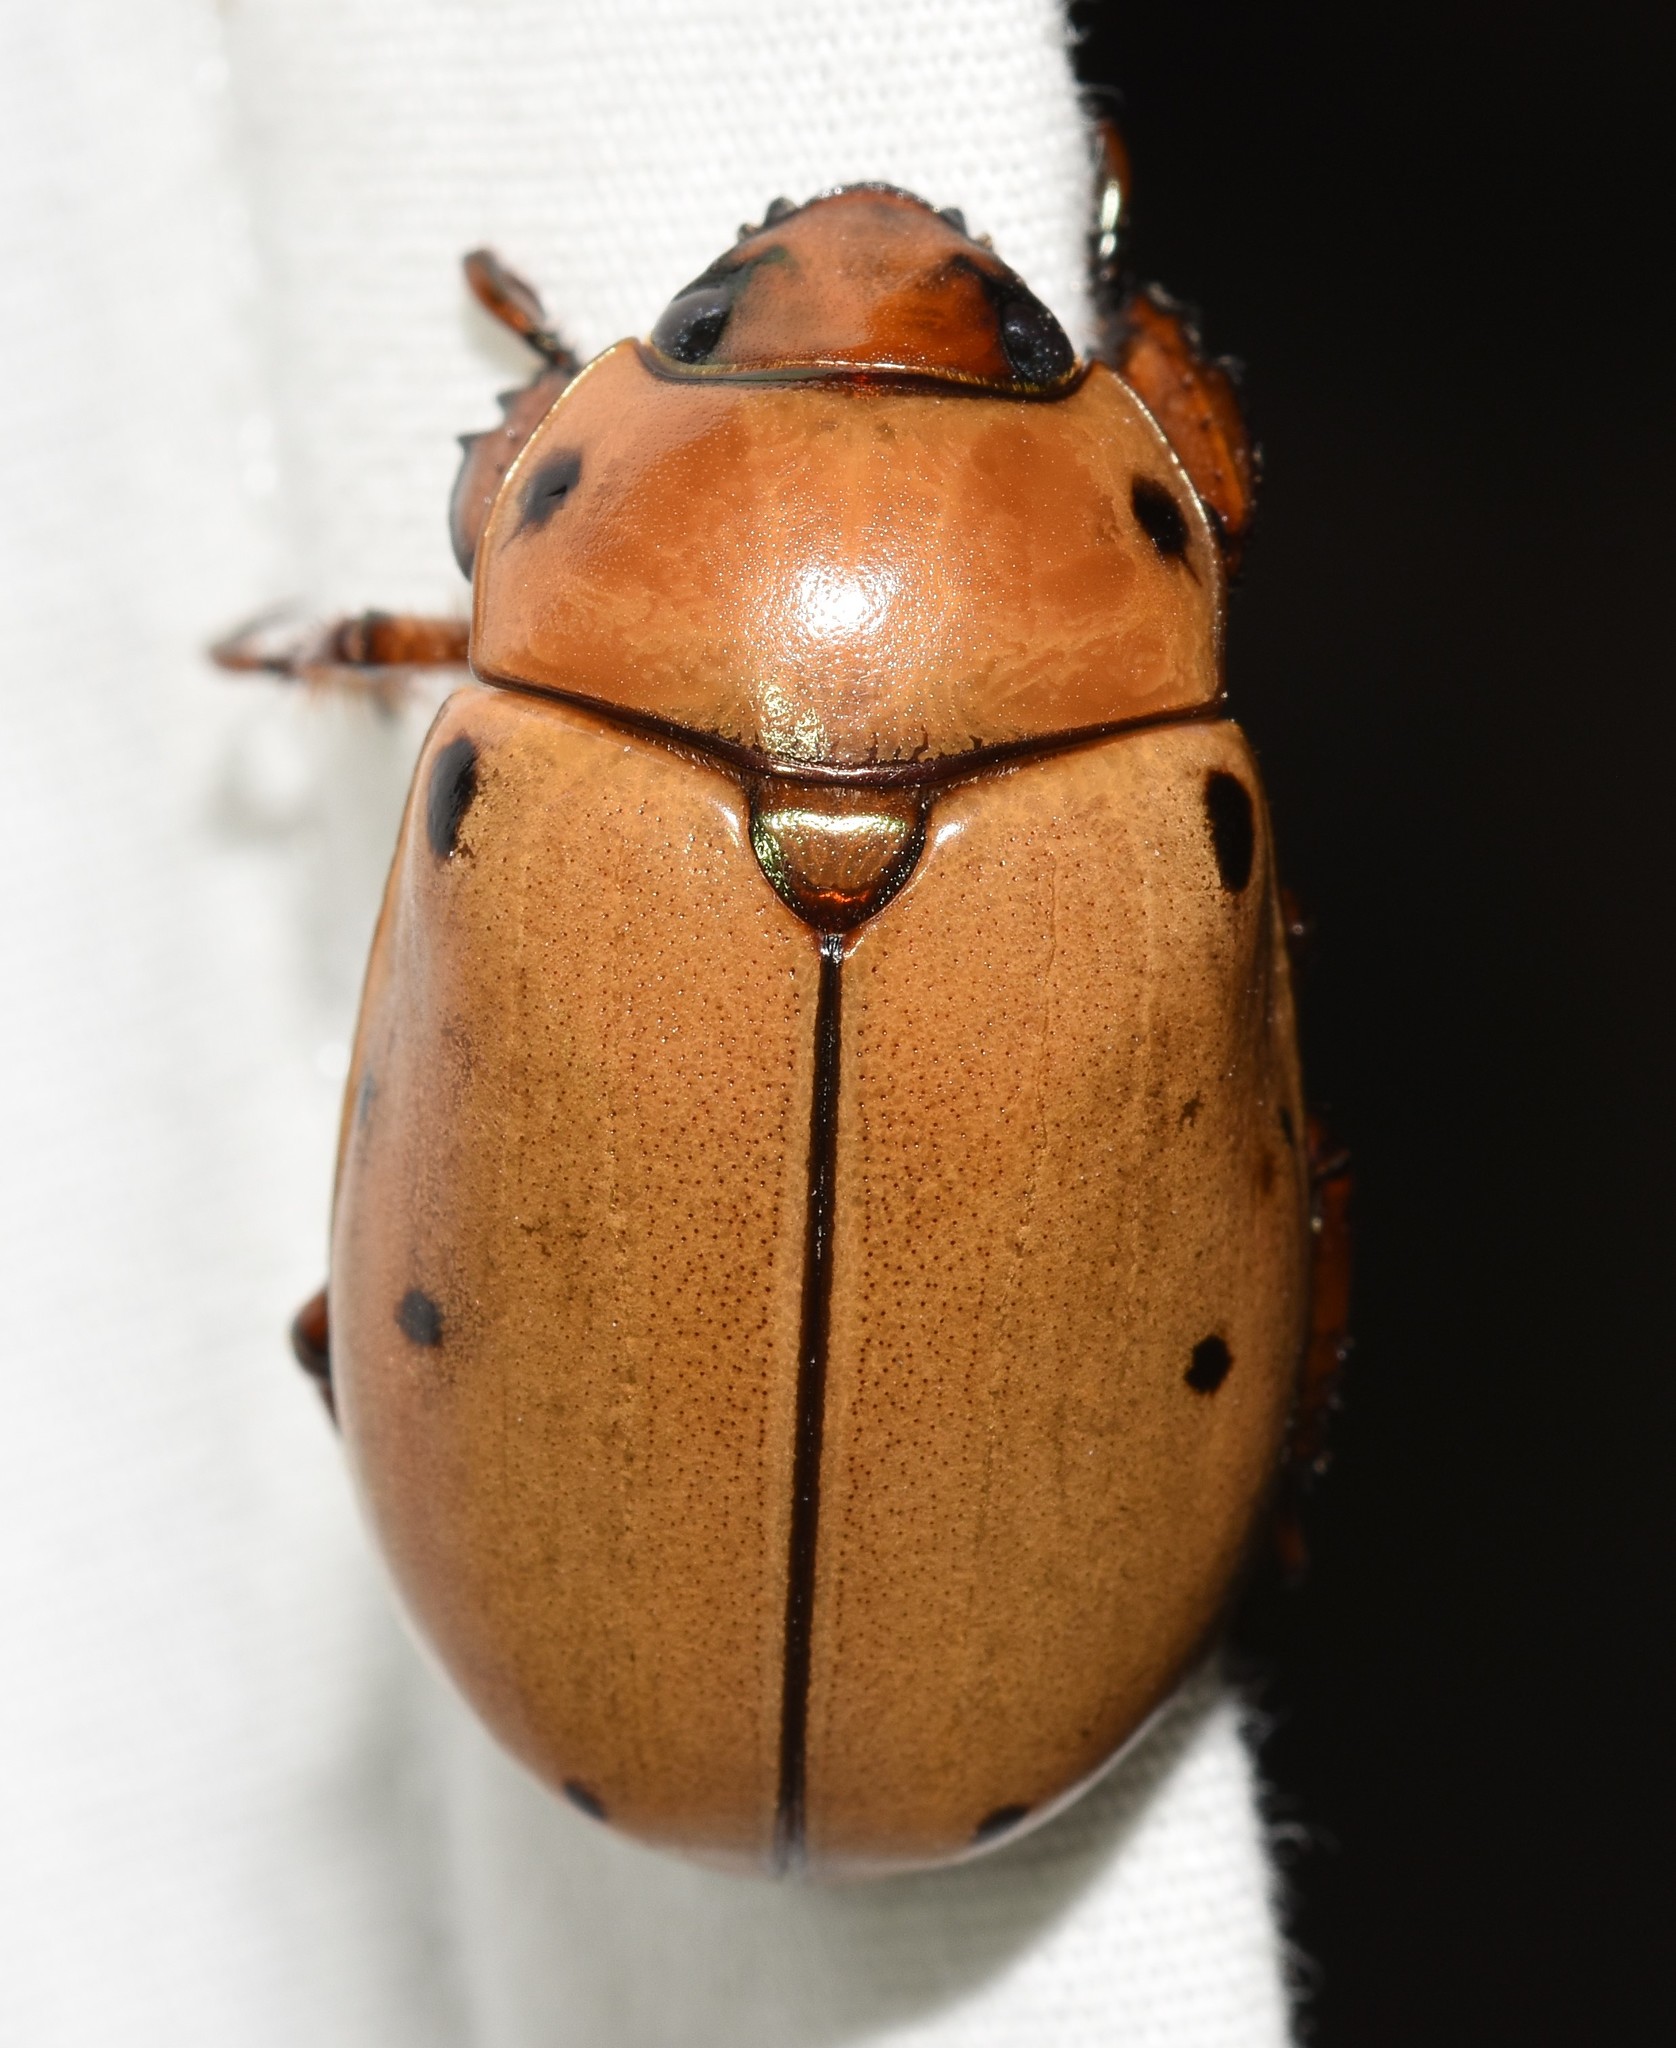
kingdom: Animalia
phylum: Arthropoda
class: Insecta
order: Coleoptera
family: Scarabaeidae
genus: Pelidnota
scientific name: Pelidnota punctata
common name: Grapevine beetle
